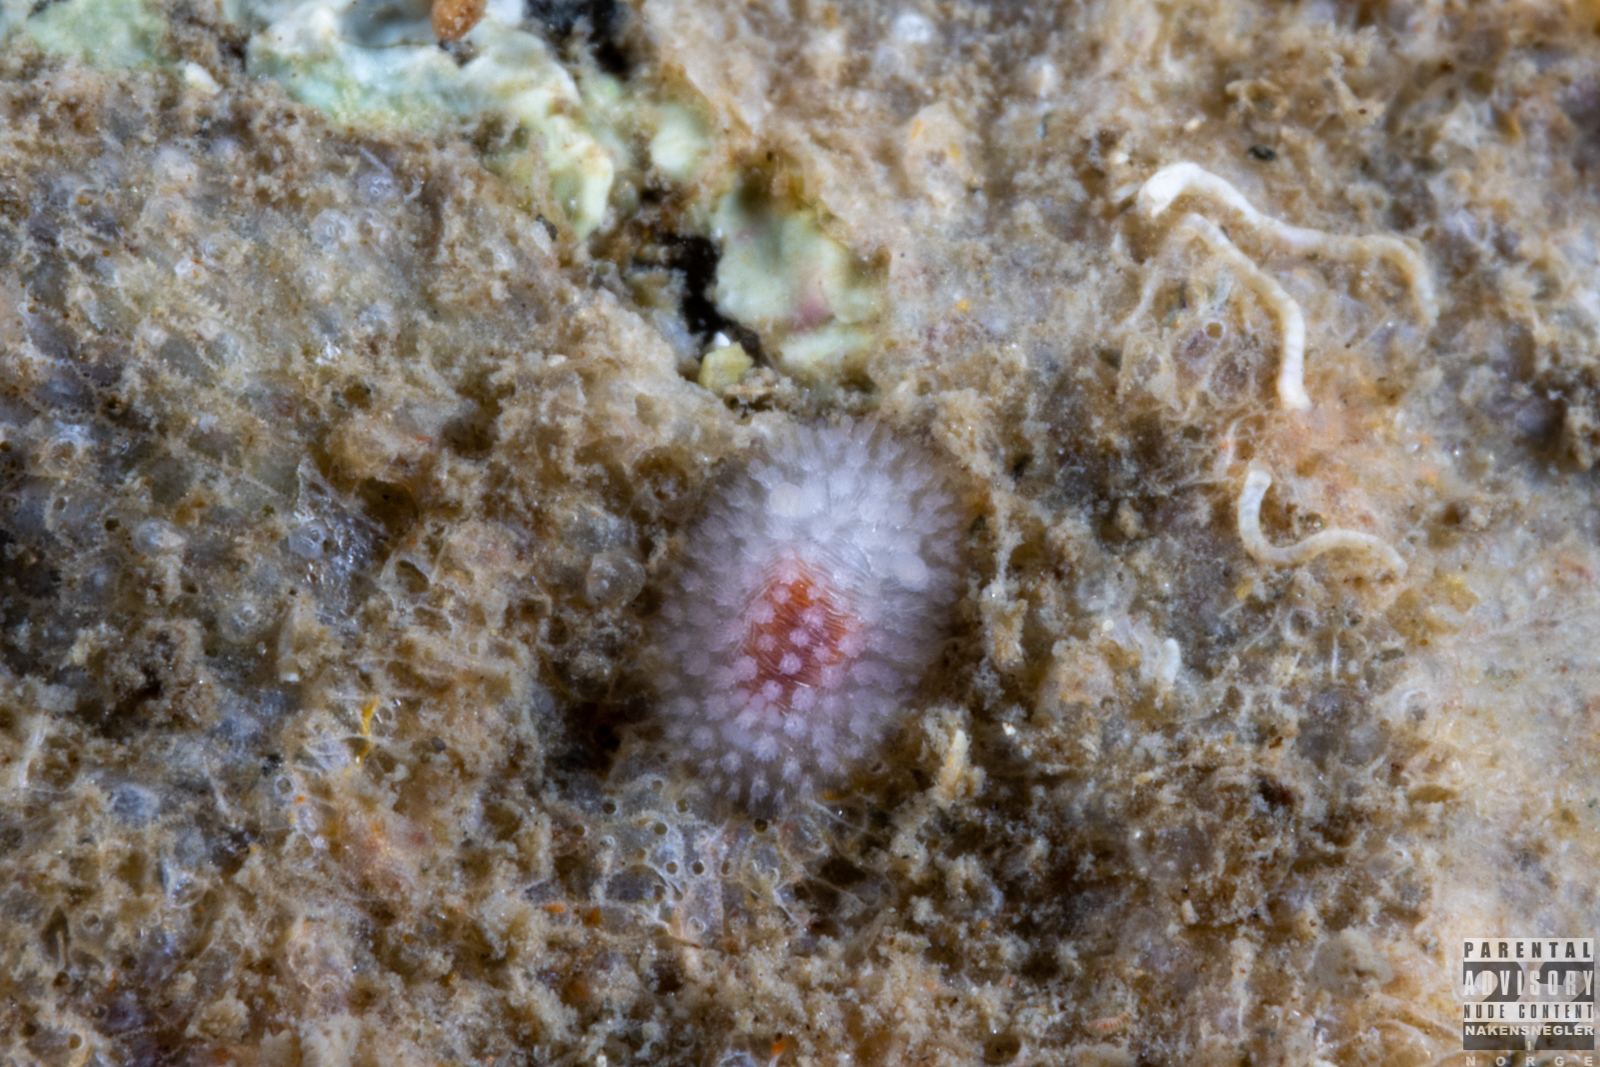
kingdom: Animalia
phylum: Mollusca
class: Gastropoda
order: Nudibranchia
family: Onchidorididae
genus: Onchidoris
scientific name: Onchidoris muricata
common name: Rough doris
